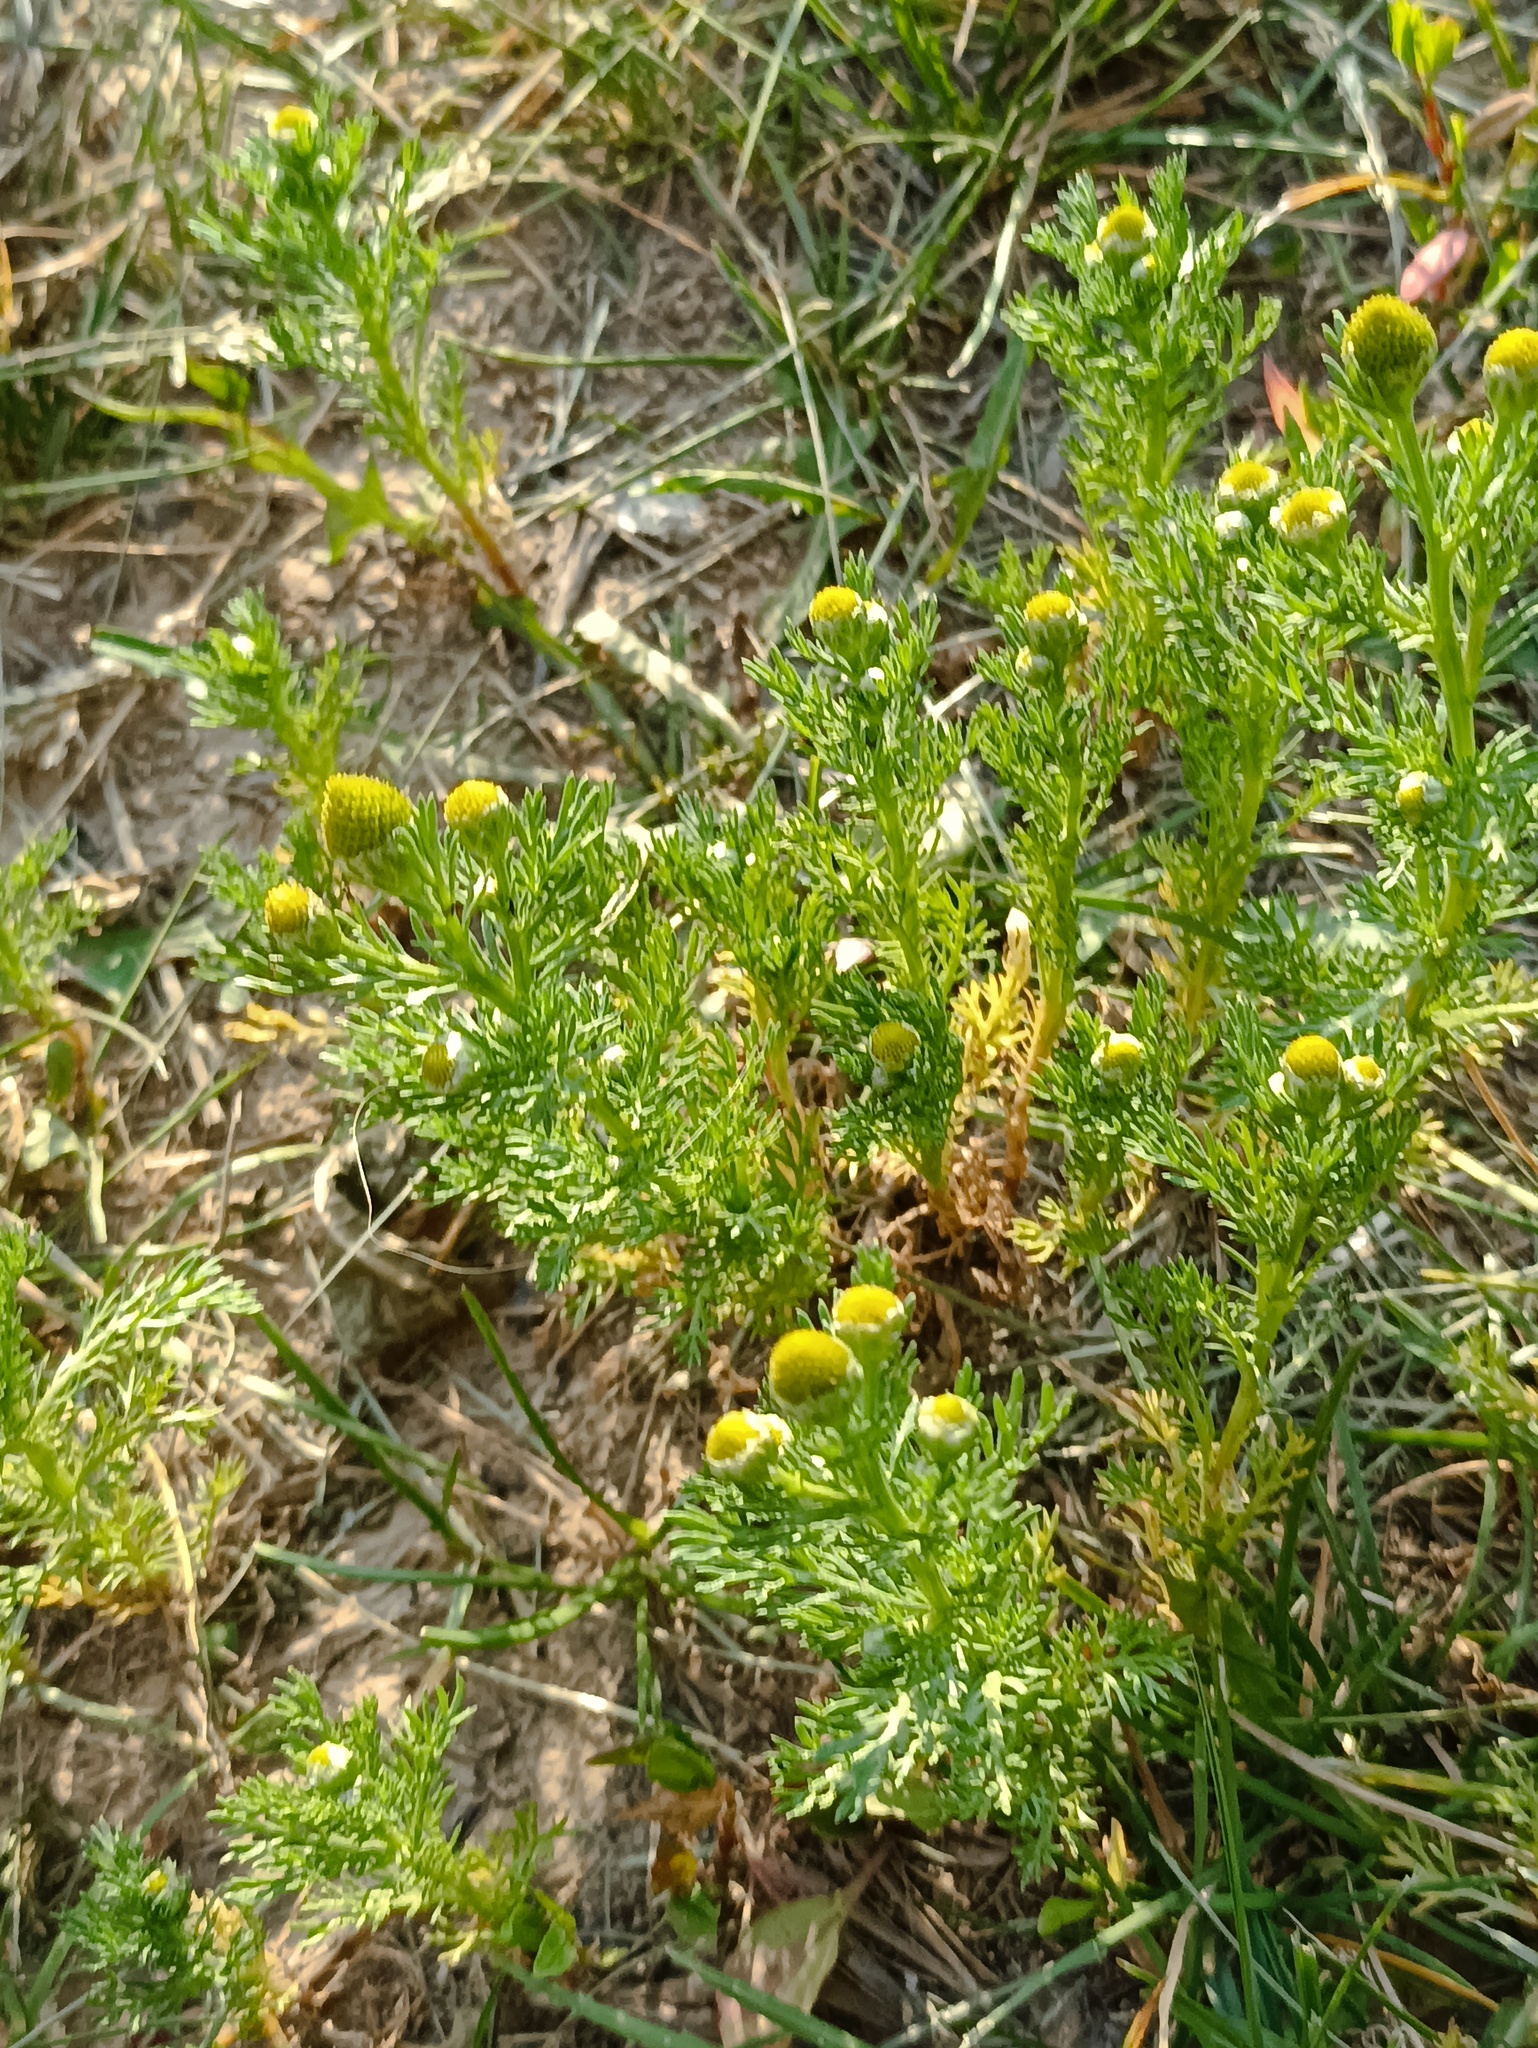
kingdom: Plantae
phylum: Tracheophyta
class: Magnoliopsida
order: Asterales
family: Asteraceae
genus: Matricaria
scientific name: Matricaria discoidea
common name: Disc mayweed
